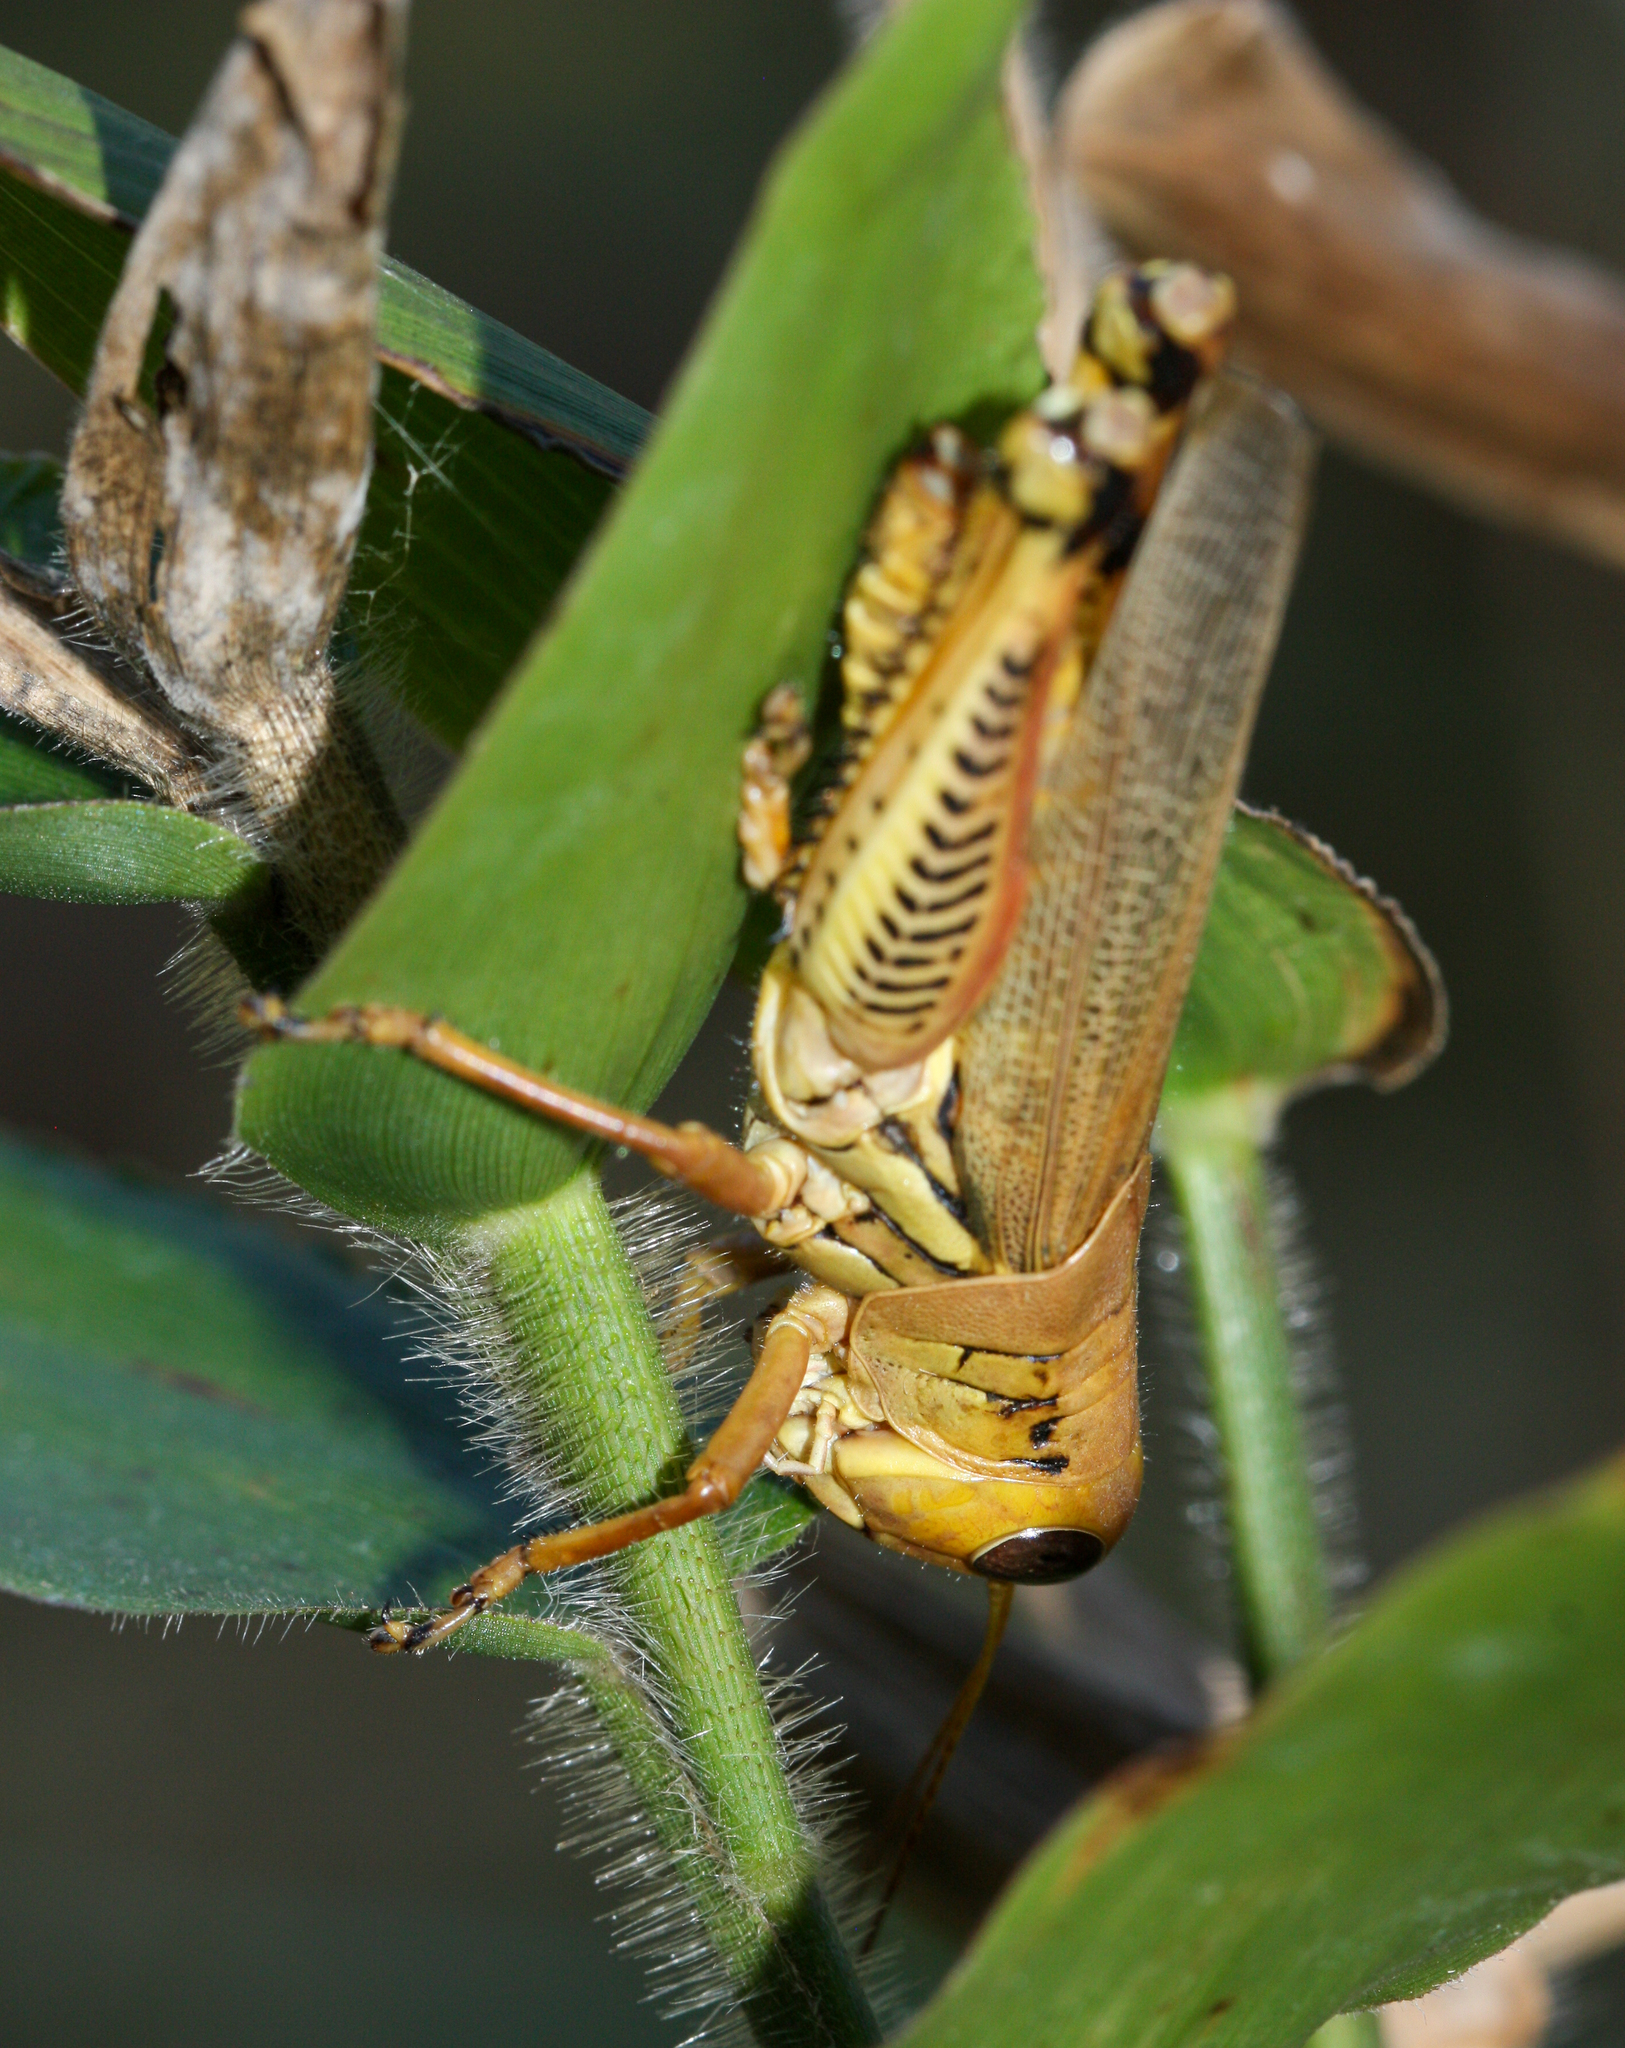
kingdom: Animalia
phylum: Arthropoda
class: Insecta
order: Orthoptera
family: Acrididae
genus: Melanoplus
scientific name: Melanoplus differentialis
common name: Differential grasshopper
